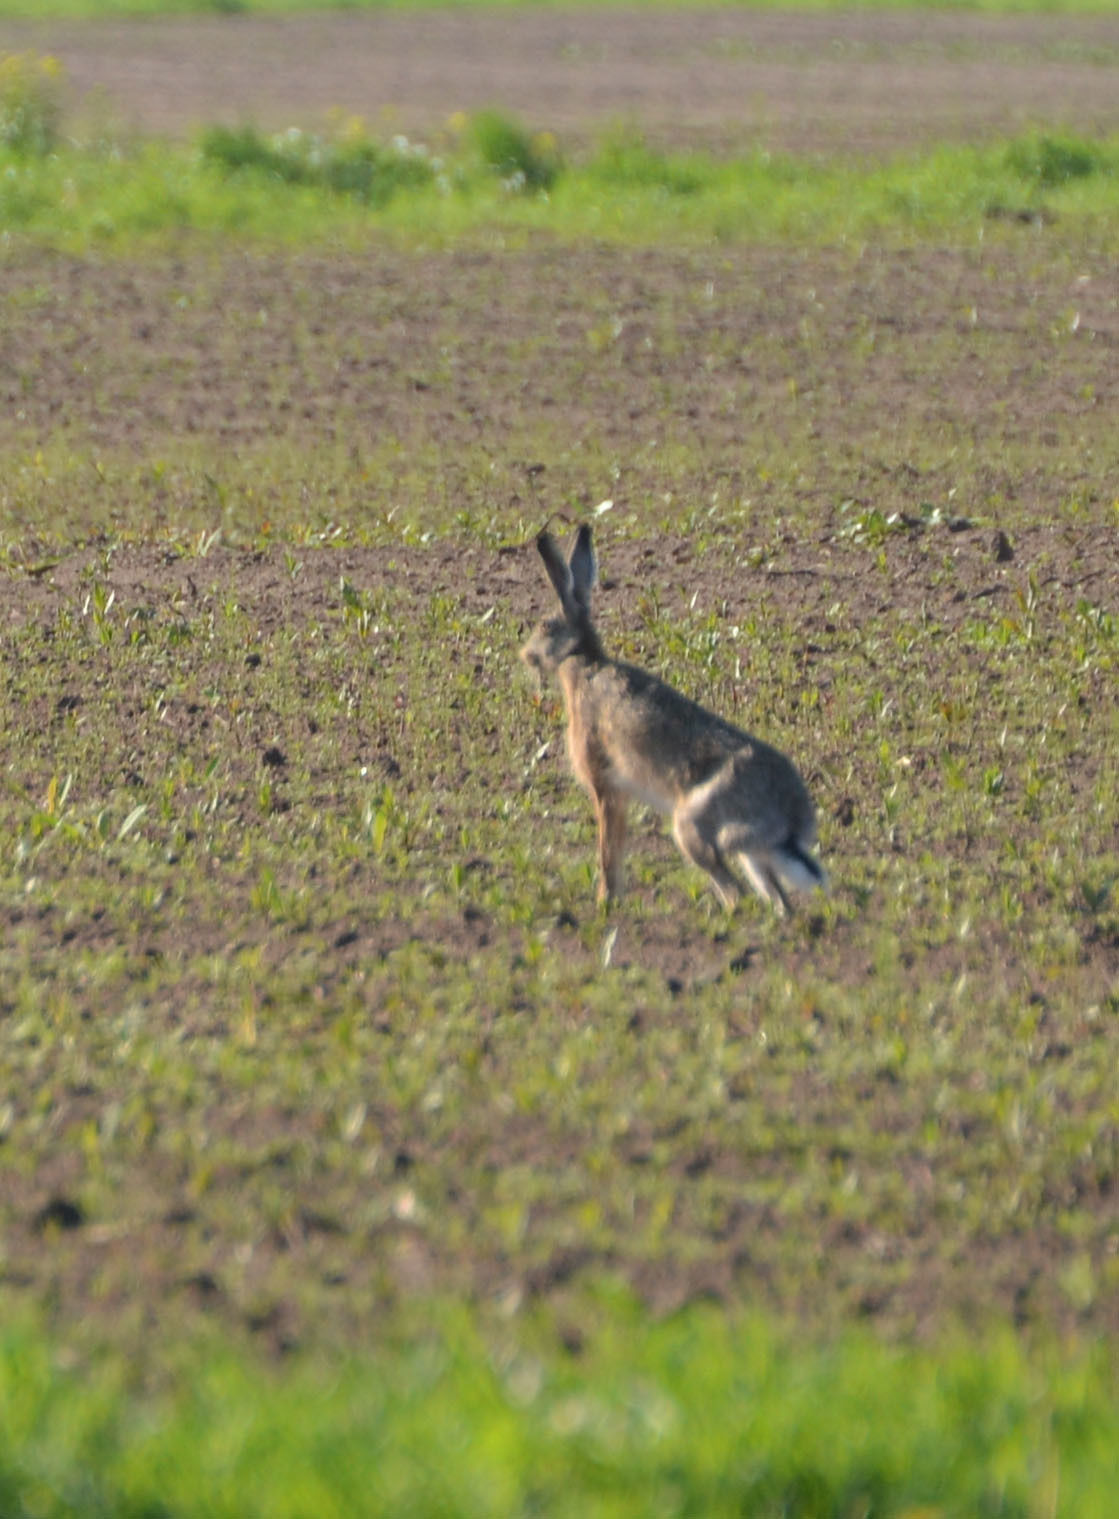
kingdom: Animalia
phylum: Chordata
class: Mammalia
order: Lagomorpha
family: Leporidae
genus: Lepus
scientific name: Lepus europaeus
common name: European hare
